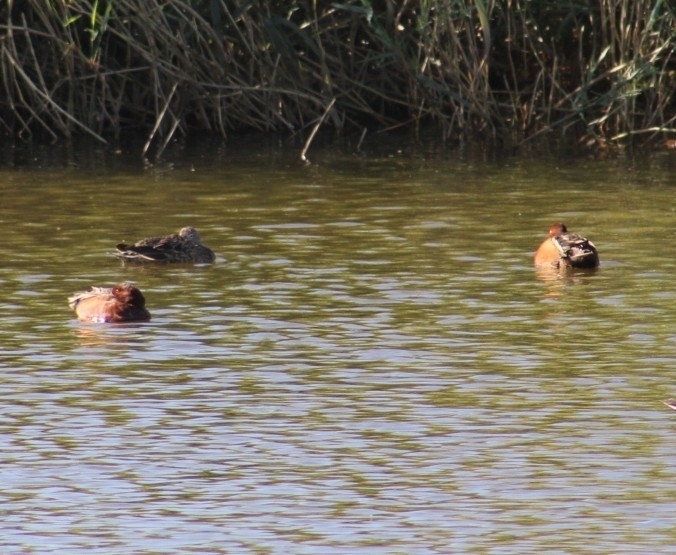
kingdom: Animalia
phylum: Chordata
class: Aves
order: Anseriformes
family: Anatidae
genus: Spatula
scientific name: Spatula cyanoptera
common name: Cinnamon teal
